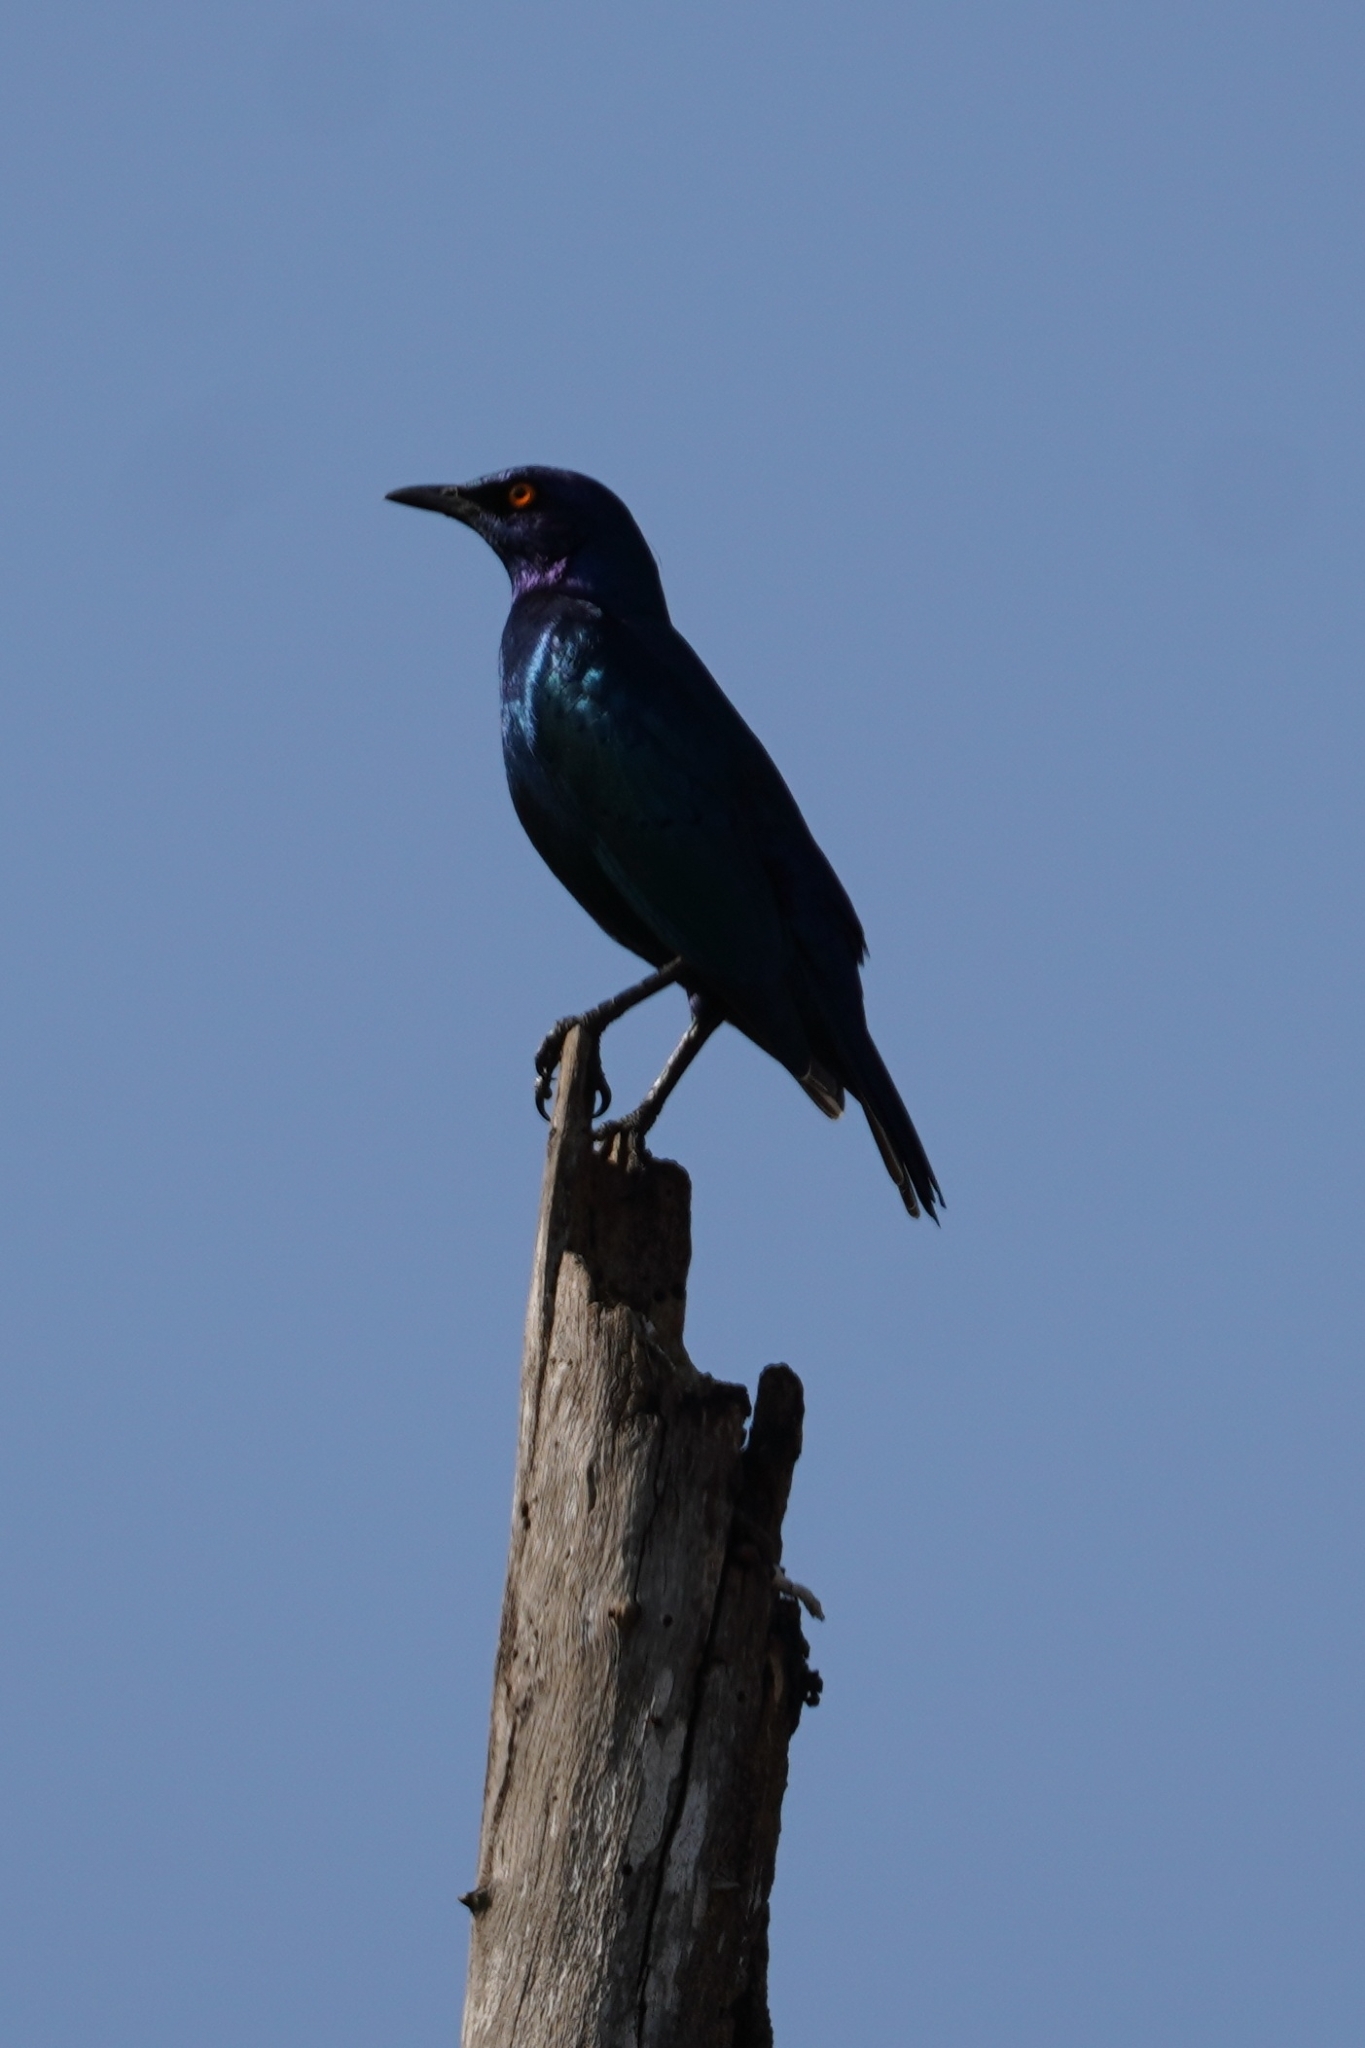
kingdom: Animalia
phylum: Chordata
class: Aves
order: Passeriformes
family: Sturnidae
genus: Lamprotornis
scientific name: Lamprotornis nitens
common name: Cape starling
